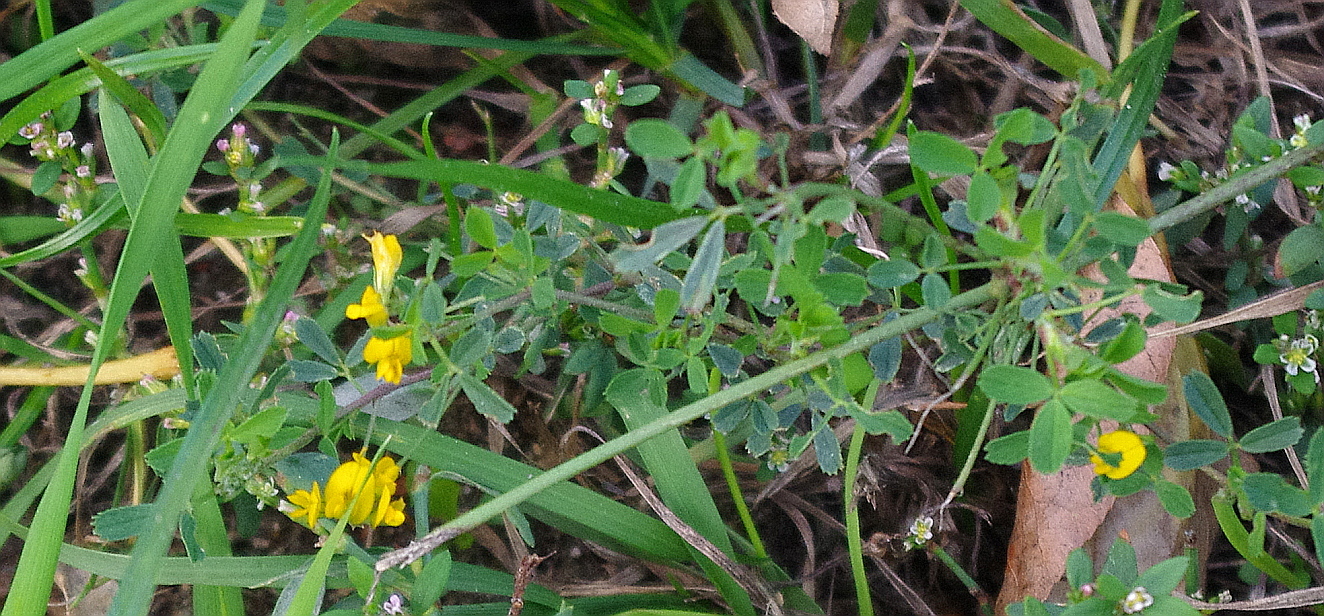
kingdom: Plantae
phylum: Tracheophyta
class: Magnoliopsida
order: Fabales
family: Fabaceae
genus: Medicago
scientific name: Medicago falcata
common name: Sickle medick
